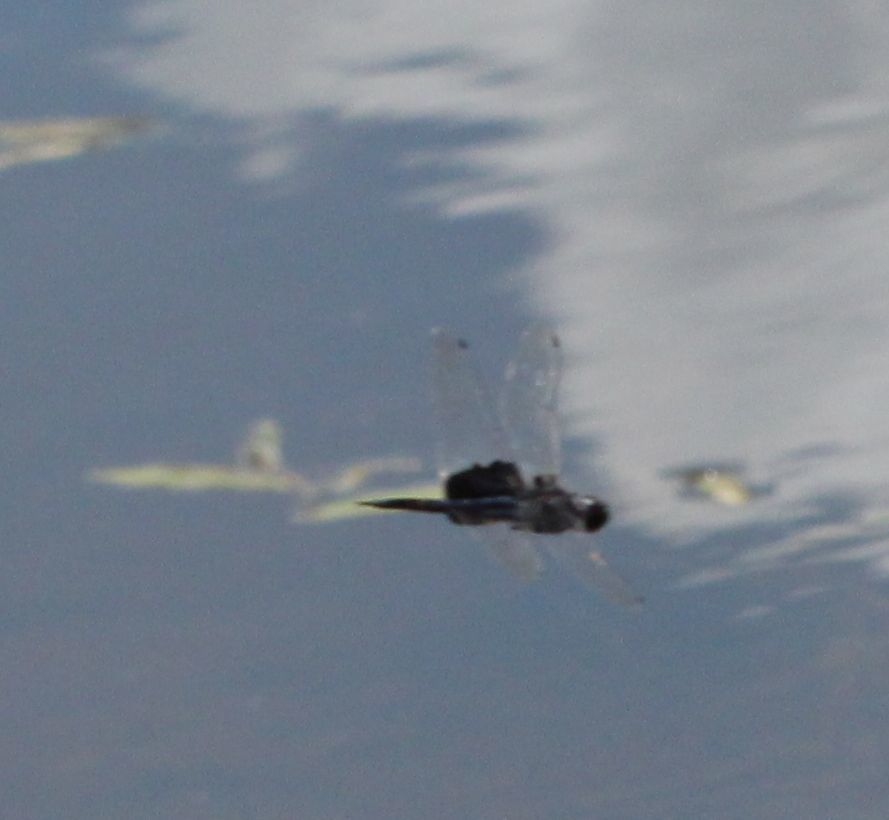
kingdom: Animalia
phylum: Arthropoda
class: Insecta
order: Odonata
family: Libellulidae
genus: Tramea
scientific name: Tramea lacerata
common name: Black saddlebags
